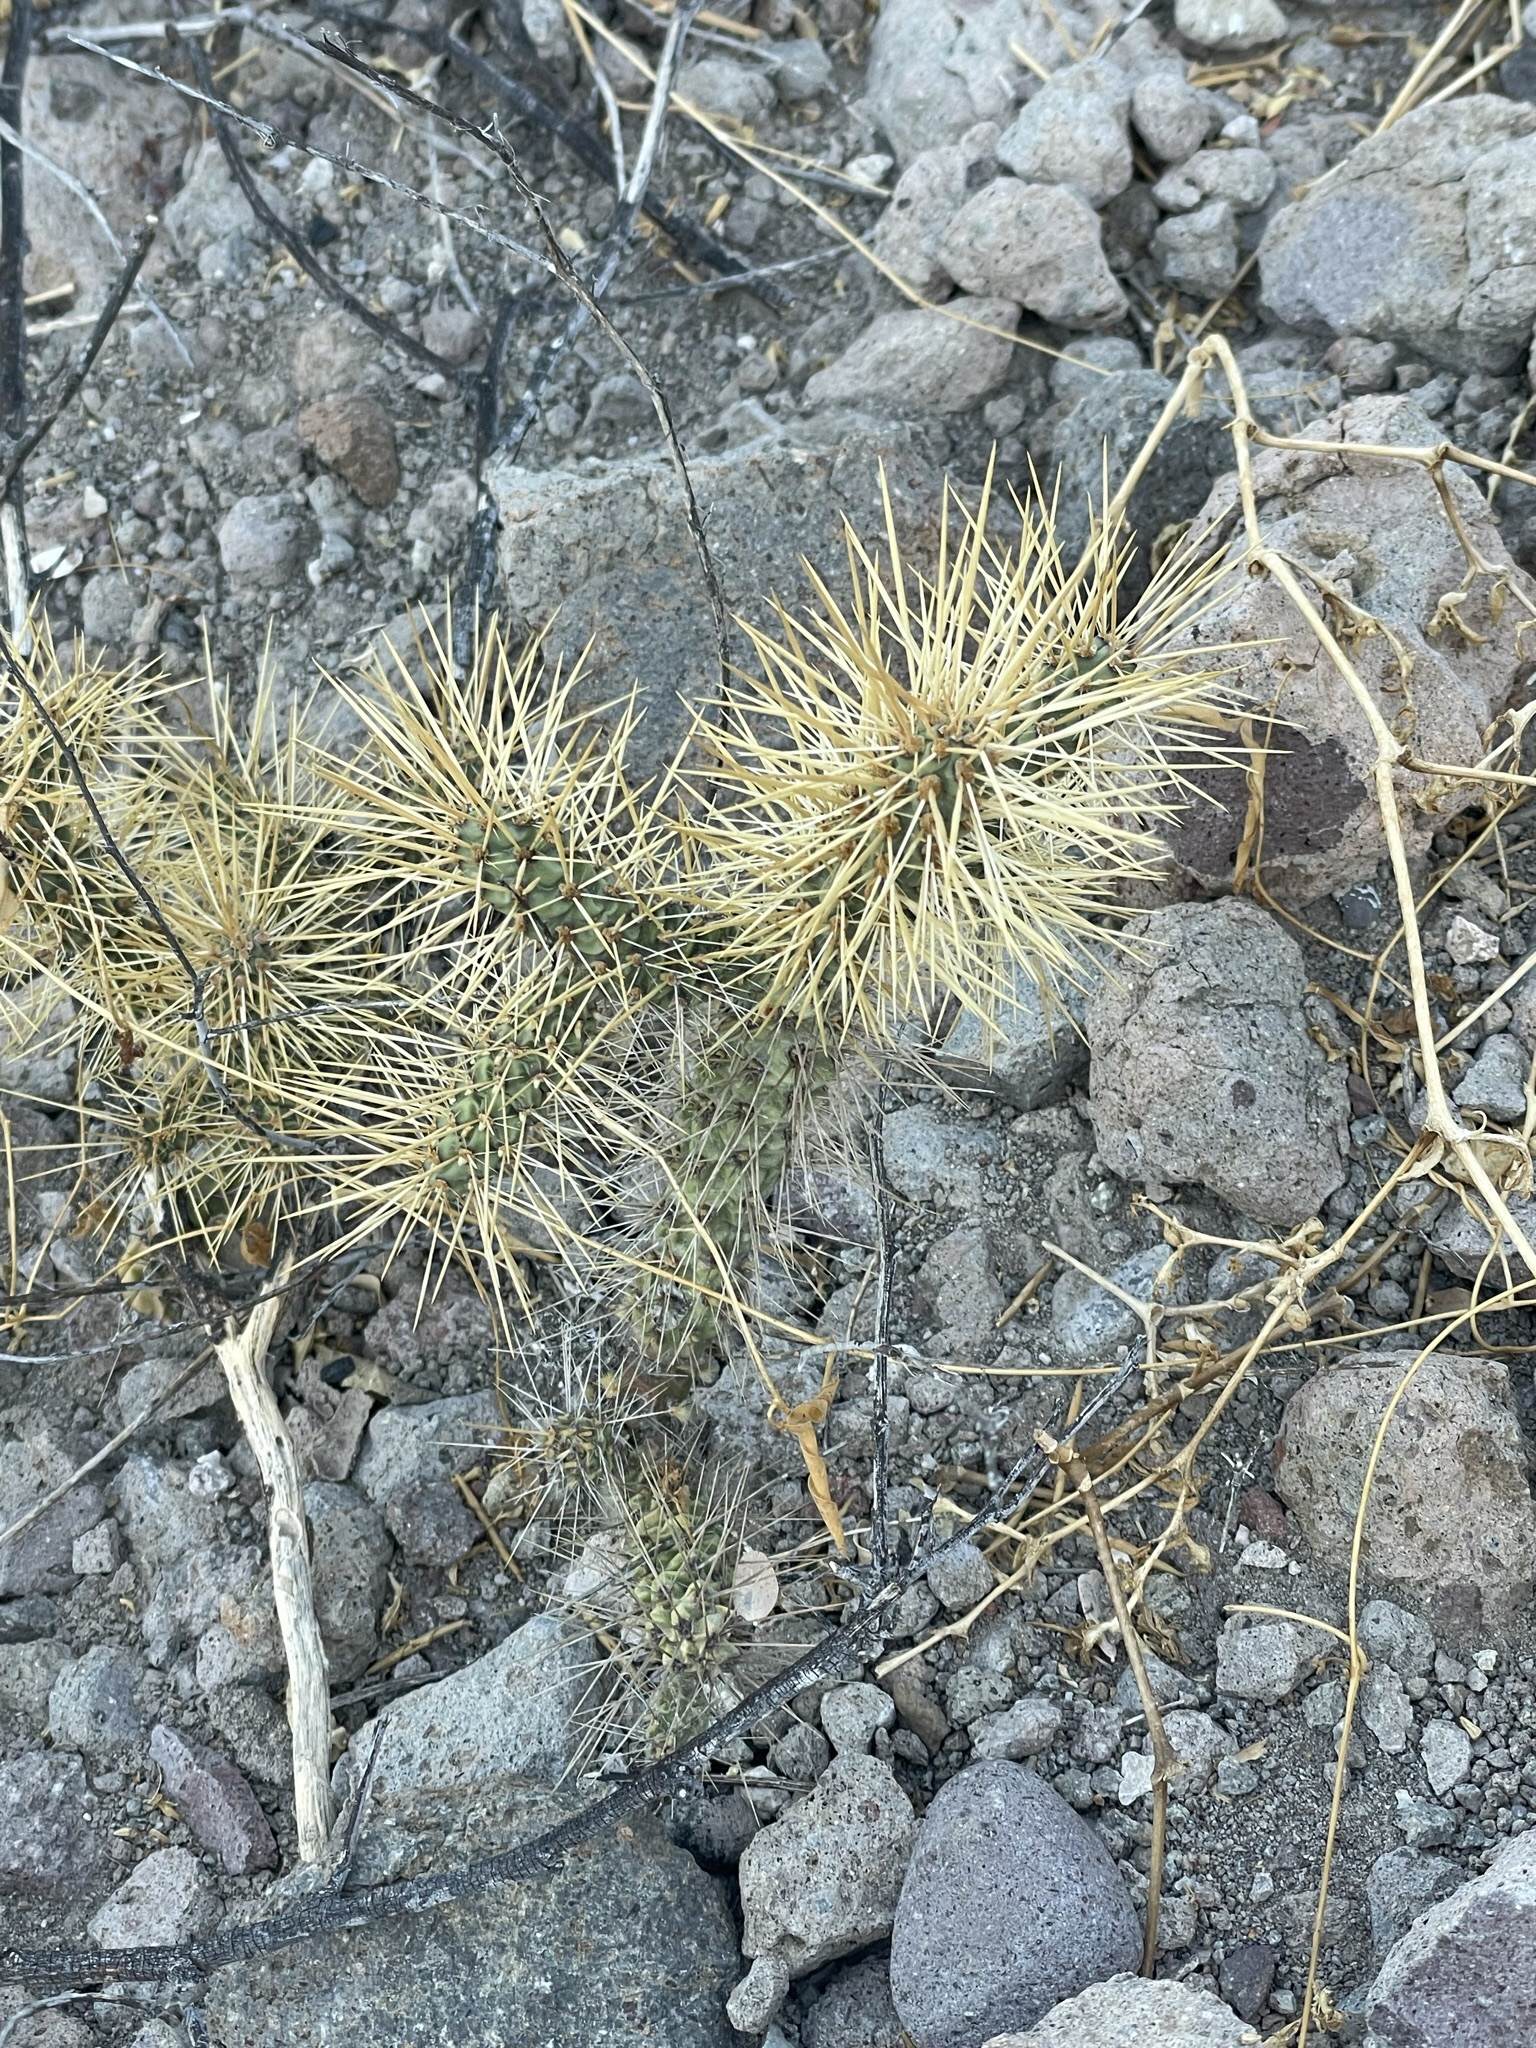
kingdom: Plantae
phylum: Tracheophyta
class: Magnoliopsida
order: Caryophyllales
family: Cactaceae
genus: Cylindropuntia
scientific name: Cylindropuntia molesta
